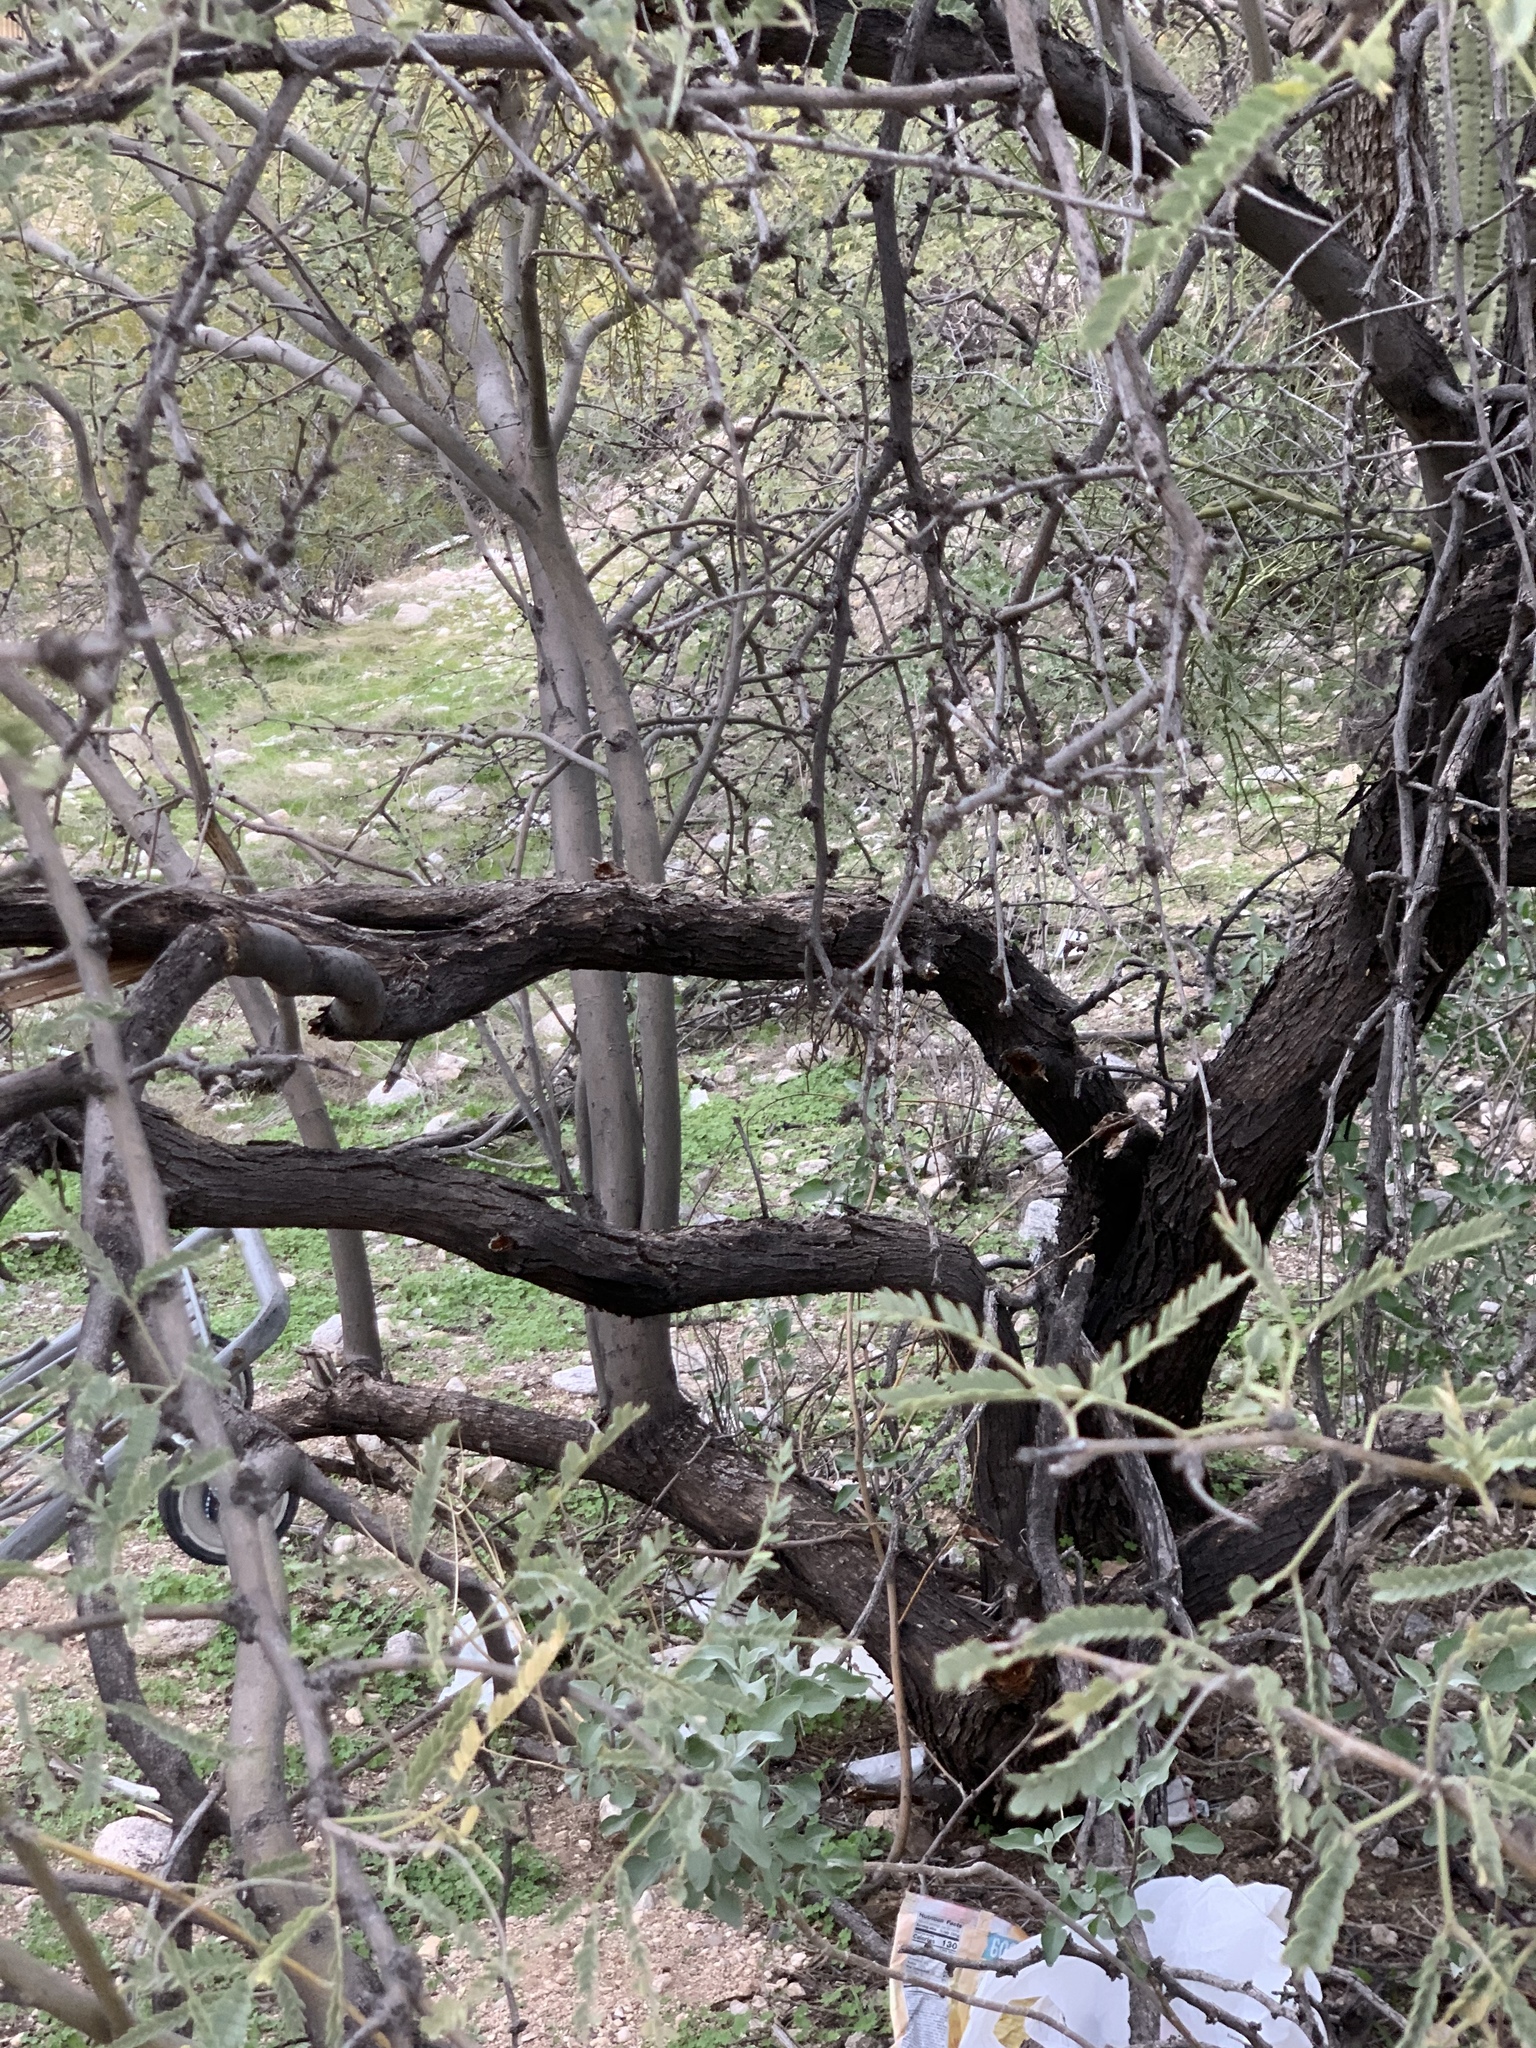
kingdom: Plantae
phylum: Tracheophyta
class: Magnoliopsida
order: Fabales
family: Fabaceae
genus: Prosopis
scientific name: Prosopis velutina
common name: Velvet mesquite
